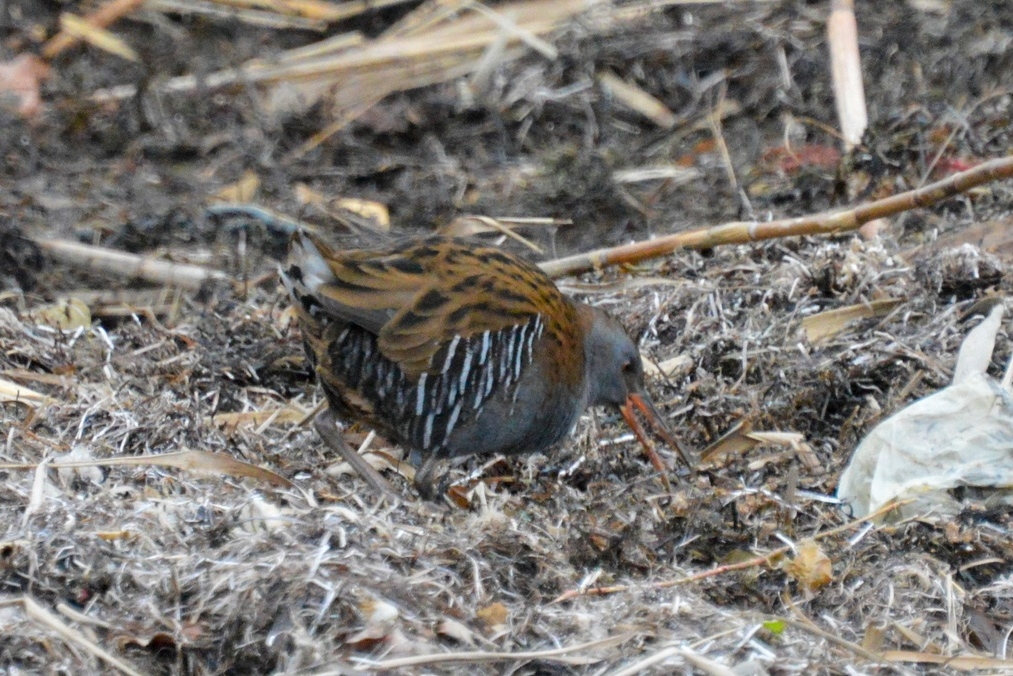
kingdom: Animalia
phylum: Chordata
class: Aves
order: Gruiformes
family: Rallidae
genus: Rallus
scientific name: Rallus aquaticus
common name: Water rail
